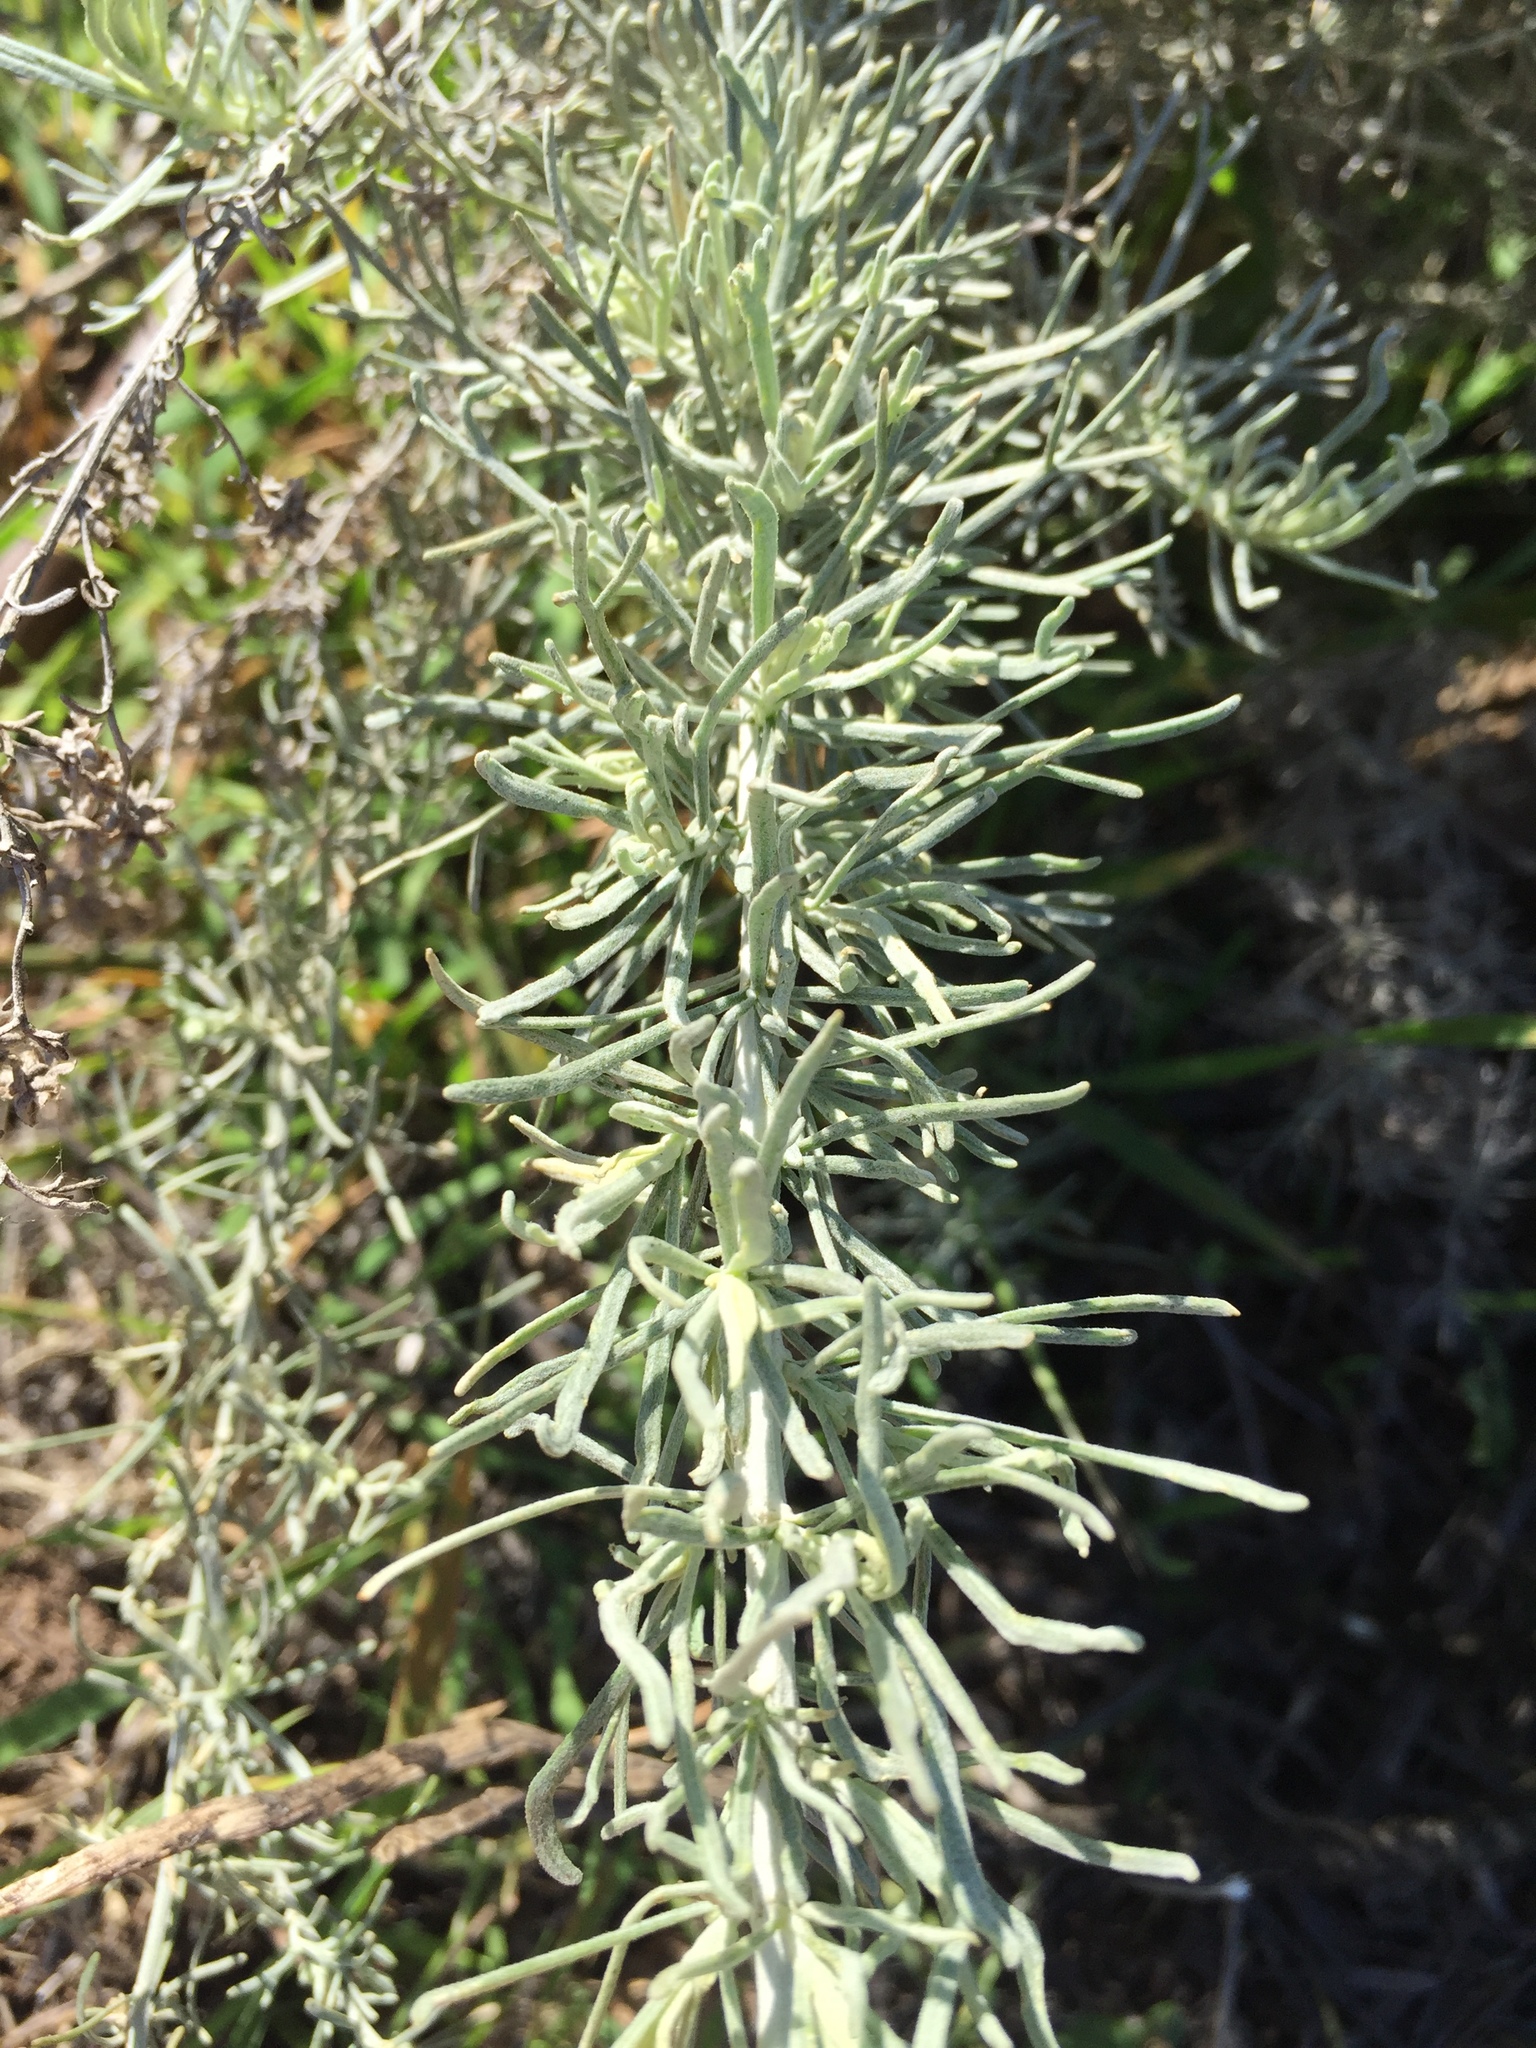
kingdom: Plantae
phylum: Tracheophyta
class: Magnoliopsida
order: Asterales
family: Asteraceae
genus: Artemisia
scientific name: Artemisia californica
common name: California sagebrush
